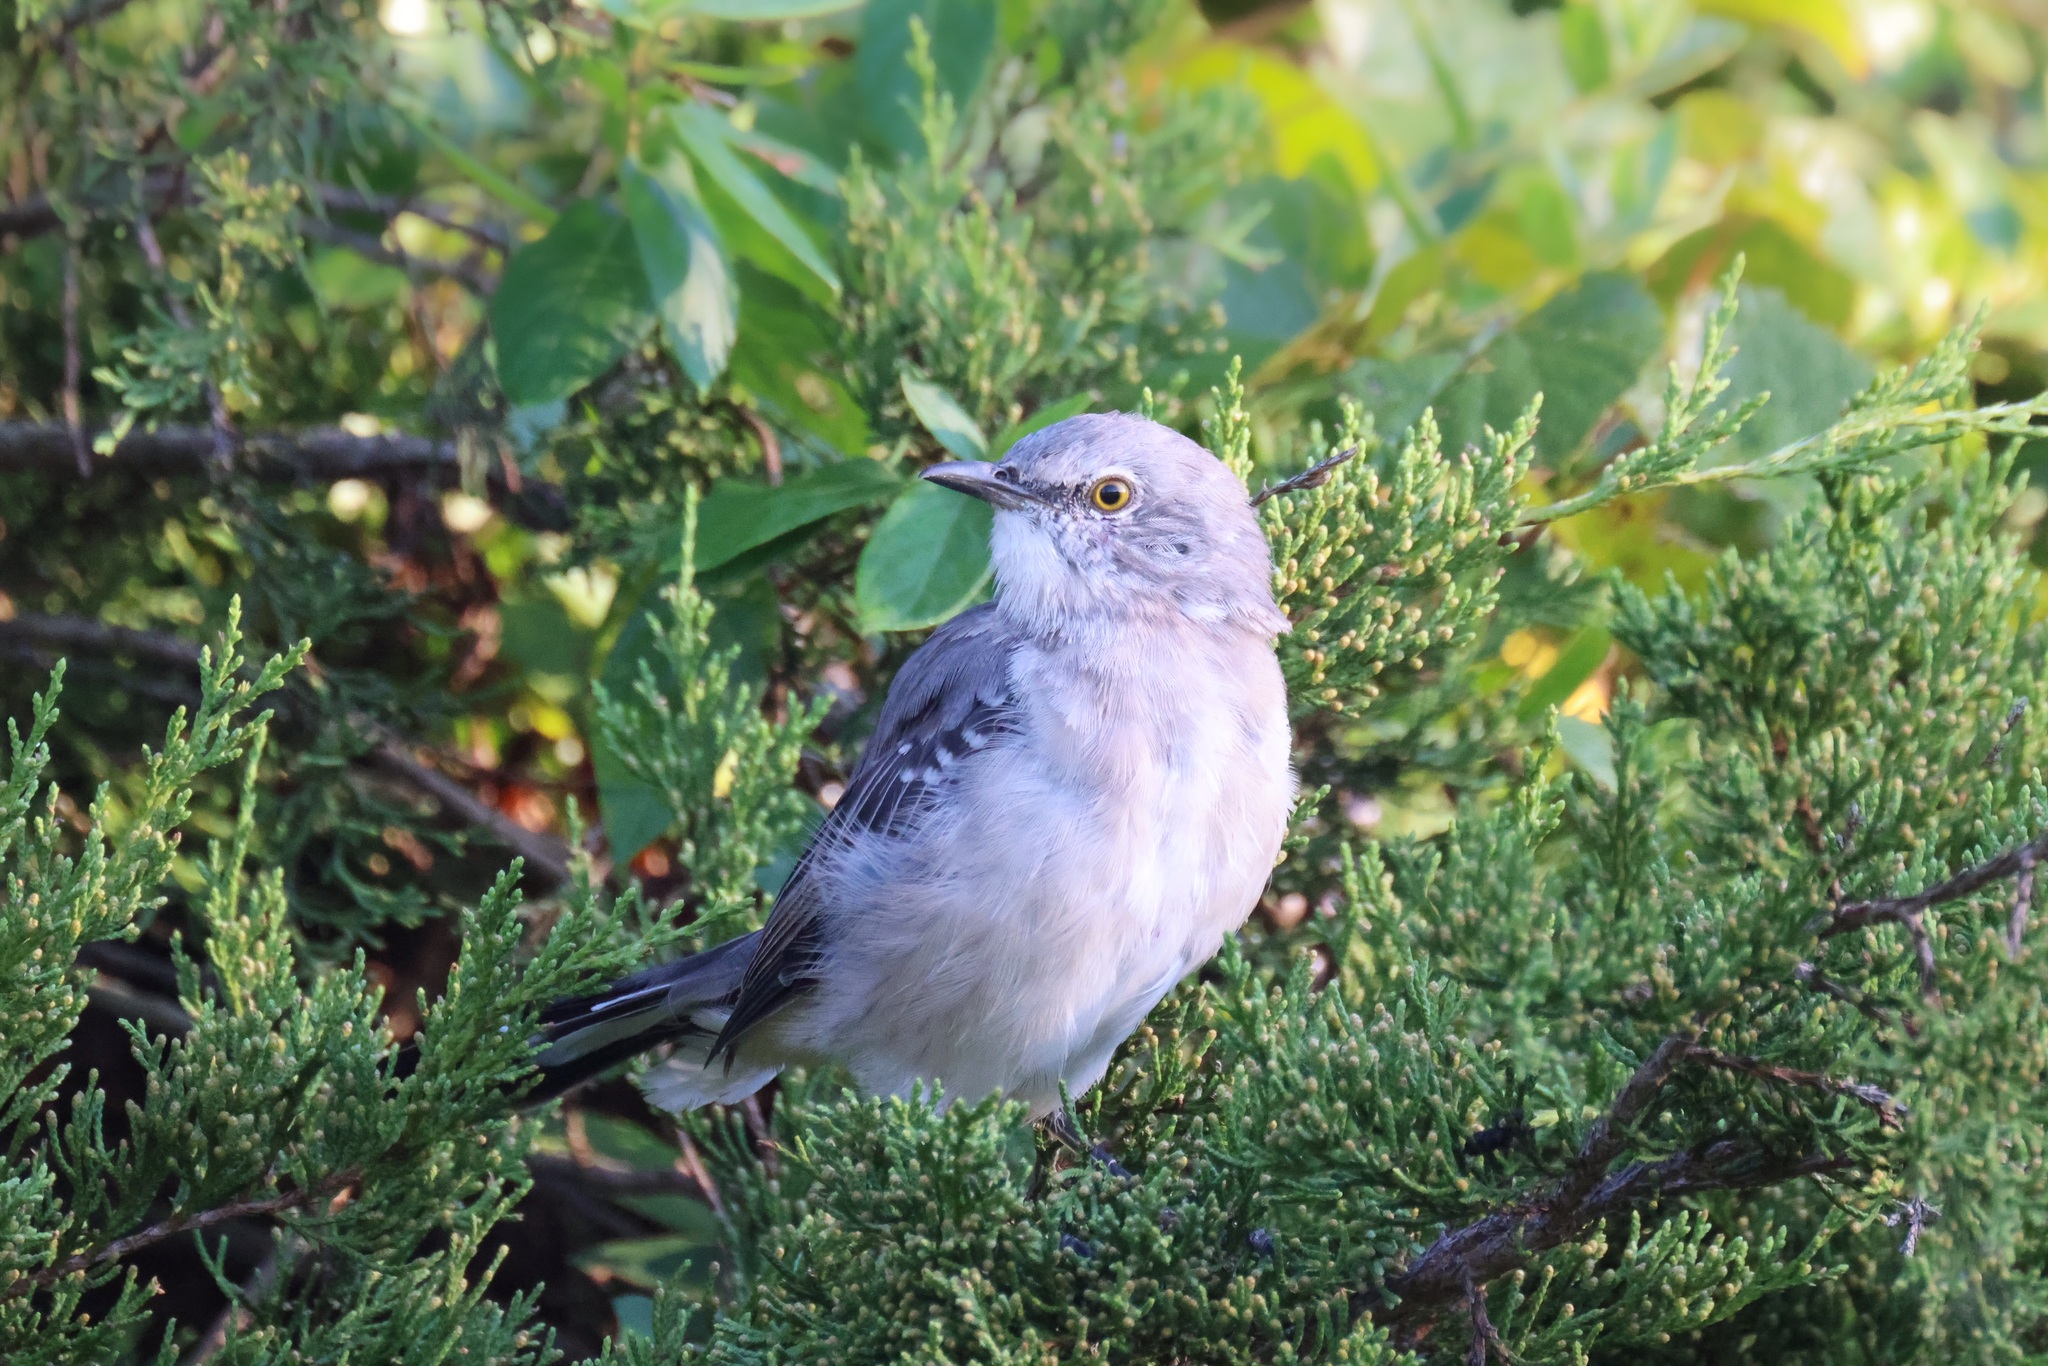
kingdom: Animalia
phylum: Chordata
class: Aves
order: Passeriformes
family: Mimidae
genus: Mimus
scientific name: Mimus polyglottos
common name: Northern mockingbird
